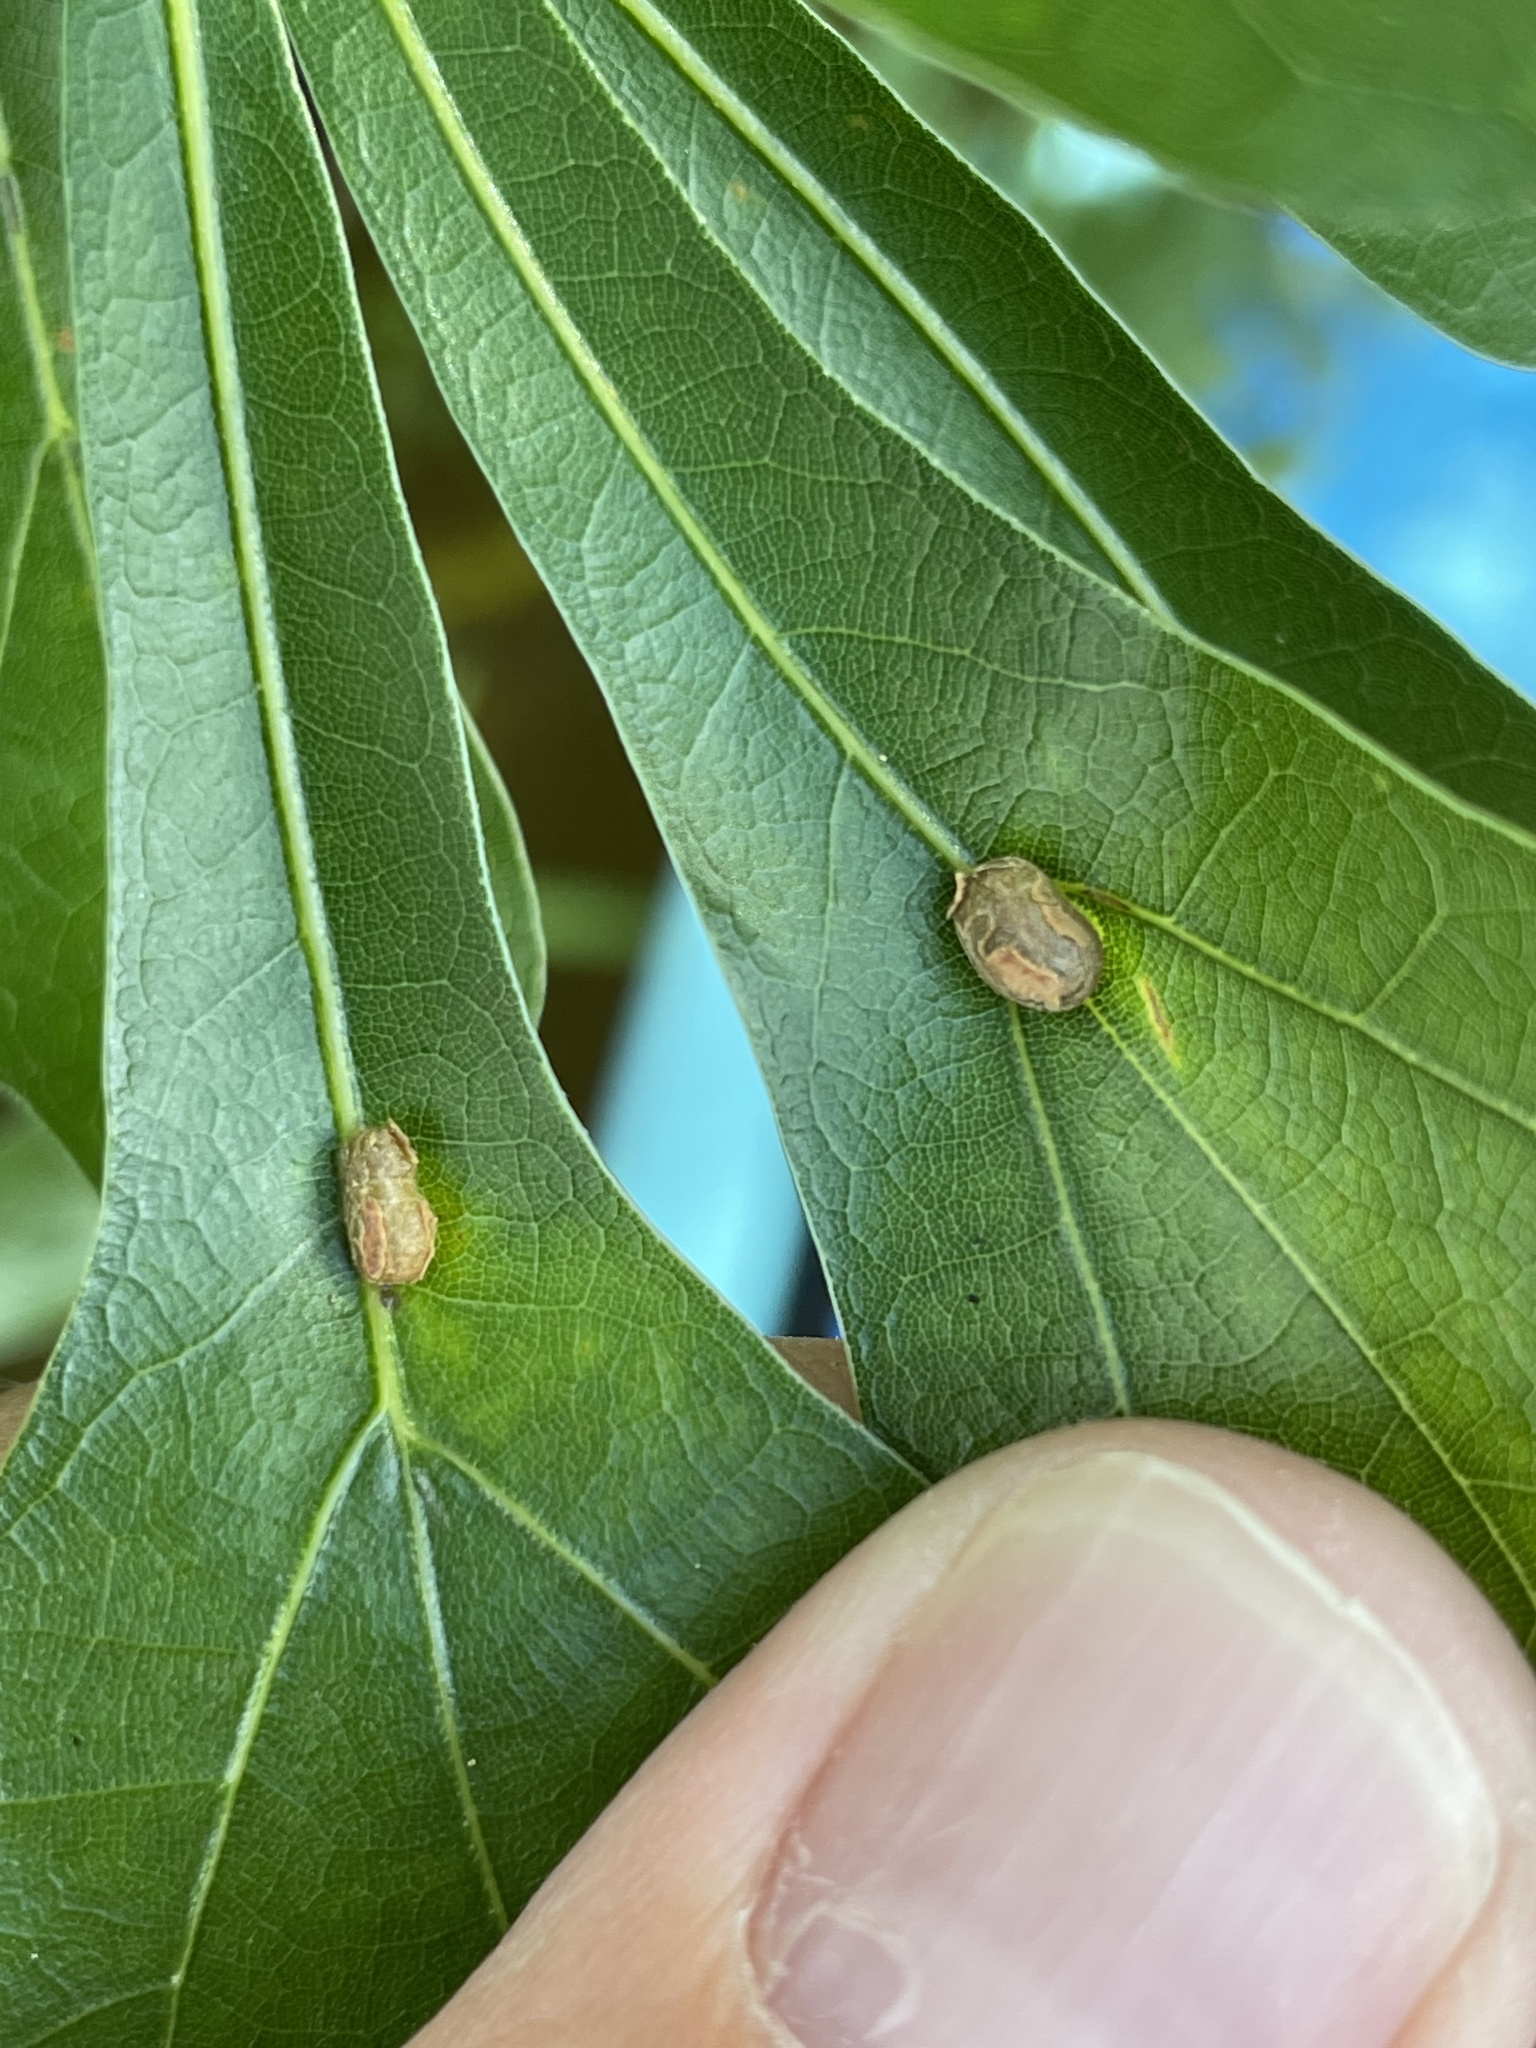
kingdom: Animalia
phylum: Arthropoda
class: Insecta
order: Diptera
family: Cecidomyiidae
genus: Polystepha
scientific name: Polystepha pilulae
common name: Oak leaf gall midge
